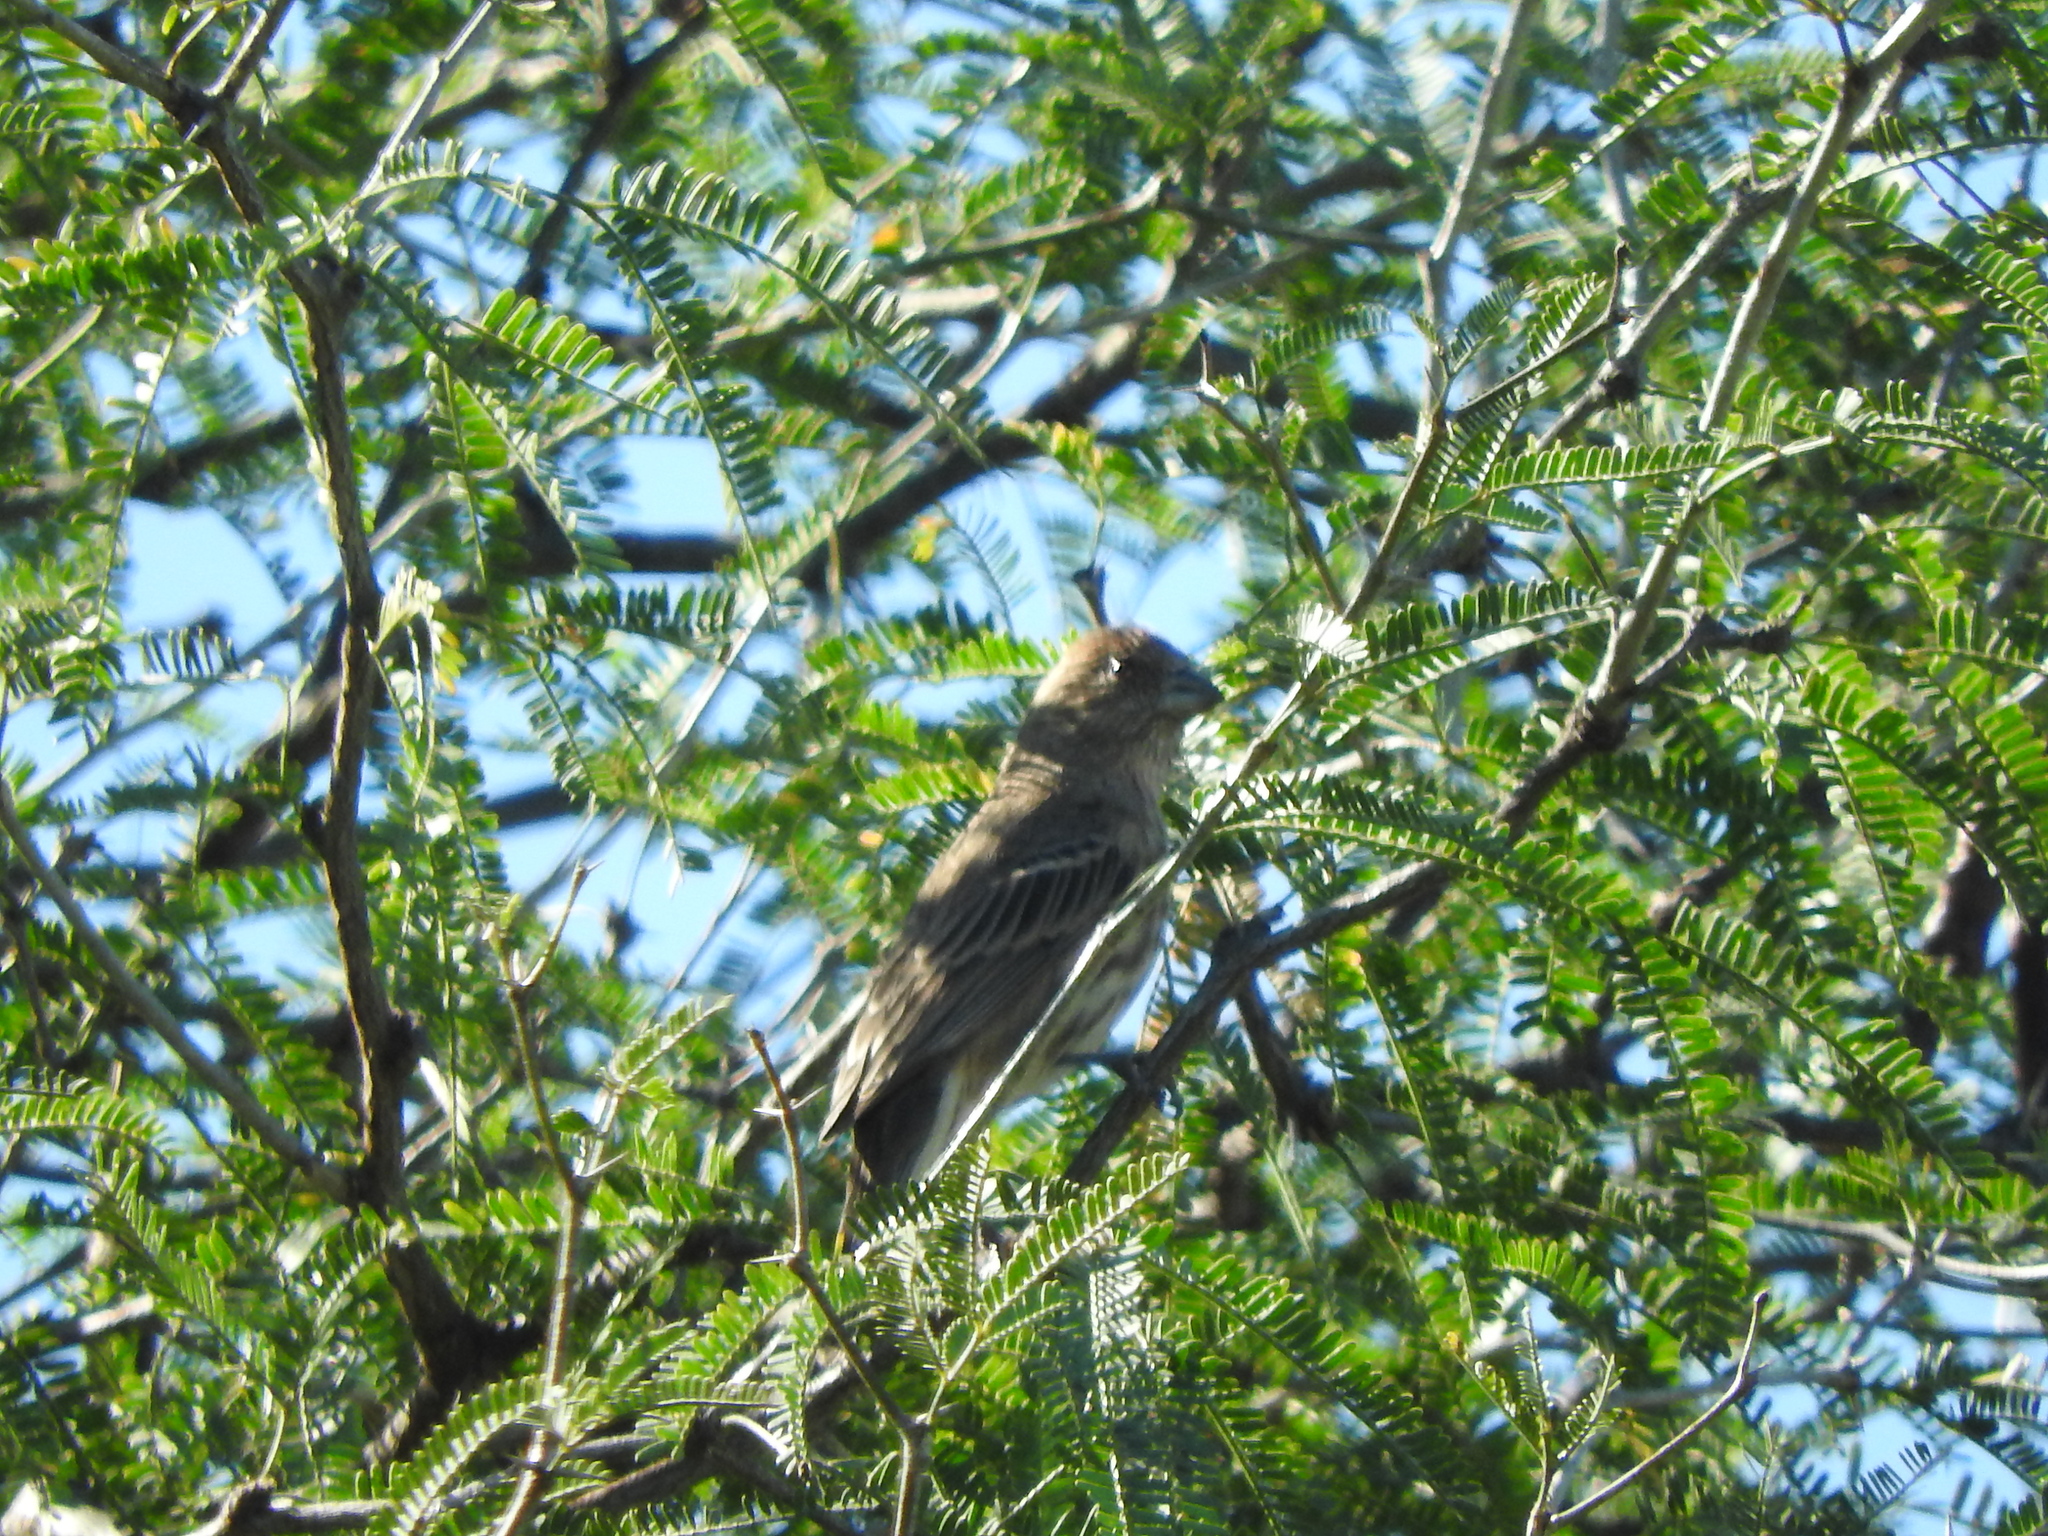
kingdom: Animalia
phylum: Chordata
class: Aves
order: Passeriformes
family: Fringillidae
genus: Haemorhous
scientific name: Haemorhous mexicanus
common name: House finch
